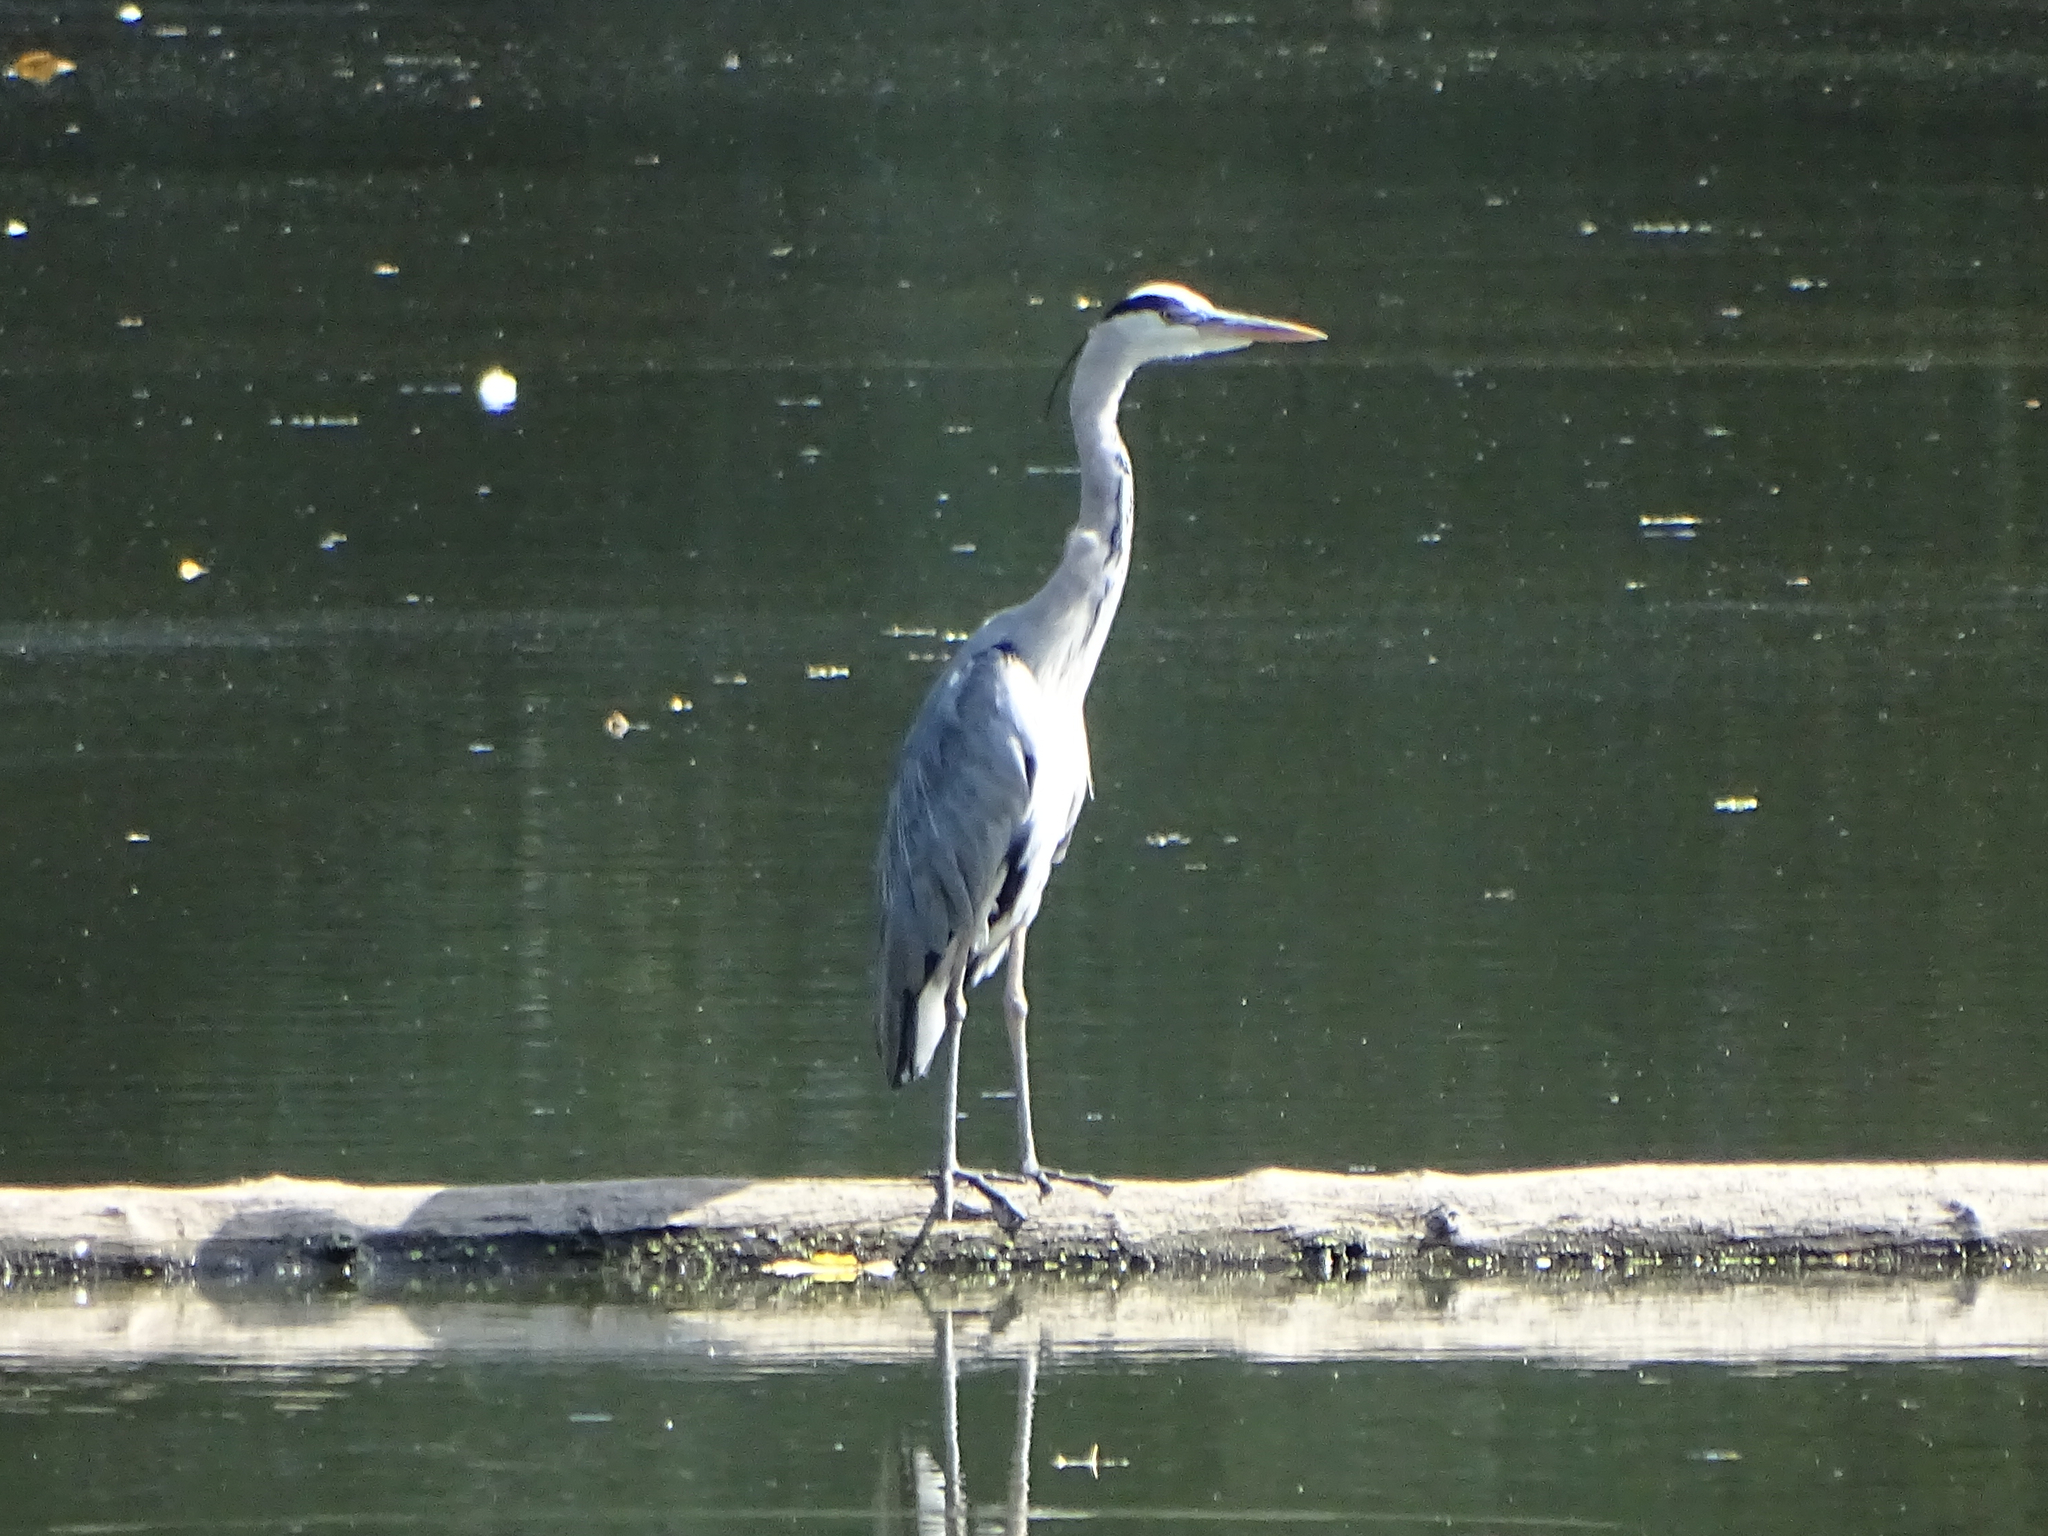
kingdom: Animalia
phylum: Chordata
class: Aves
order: Pelecaniformes
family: Ardeidae
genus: Ardea
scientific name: Ardea cinerea
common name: Grey heron
